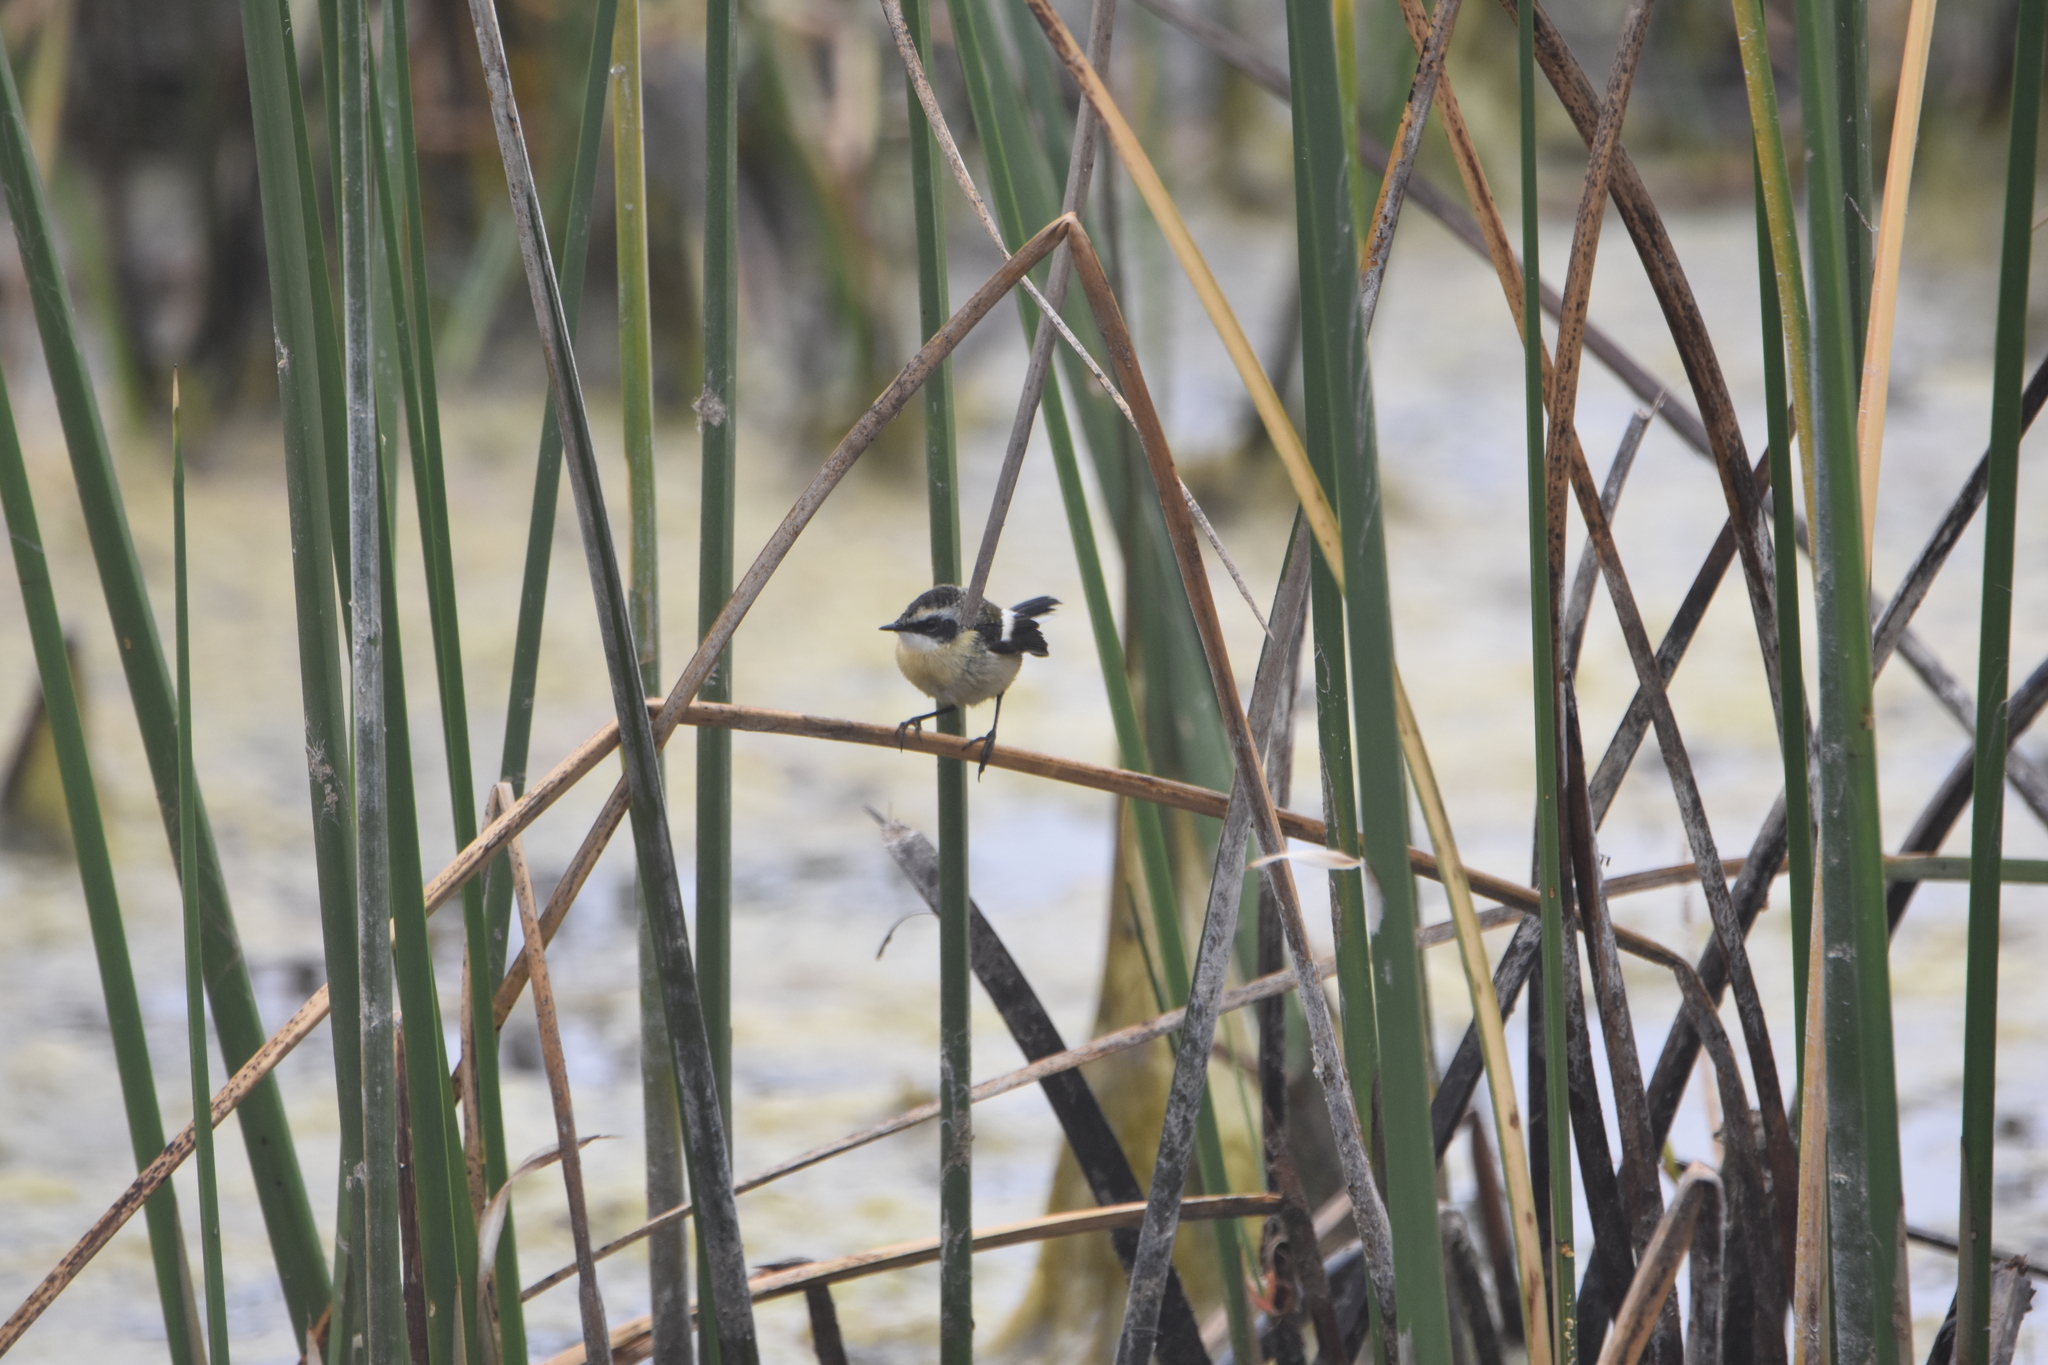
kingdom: Animalia
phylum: Chordata
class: Aves
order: Passeriformes
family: Tyrannidae
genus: Tachuris
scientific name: Tachuris rubrigastra
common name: Many-colored rush tyrant
